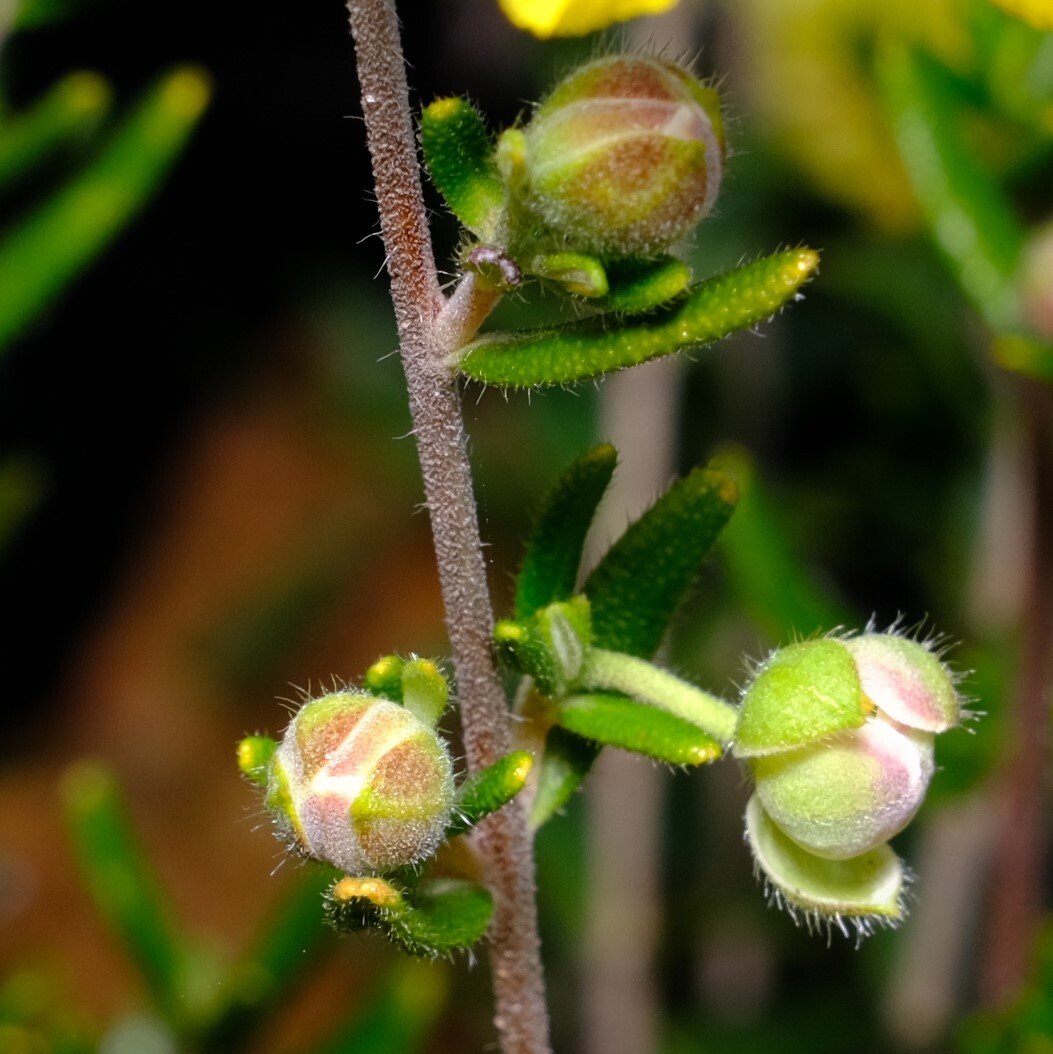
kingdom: Plantae
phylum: Tracheophyta
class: Magnoliopsida
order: Dilleniales
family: Dilleniaceae
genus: Hibbertia
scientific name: Hibbertia hypericoides
